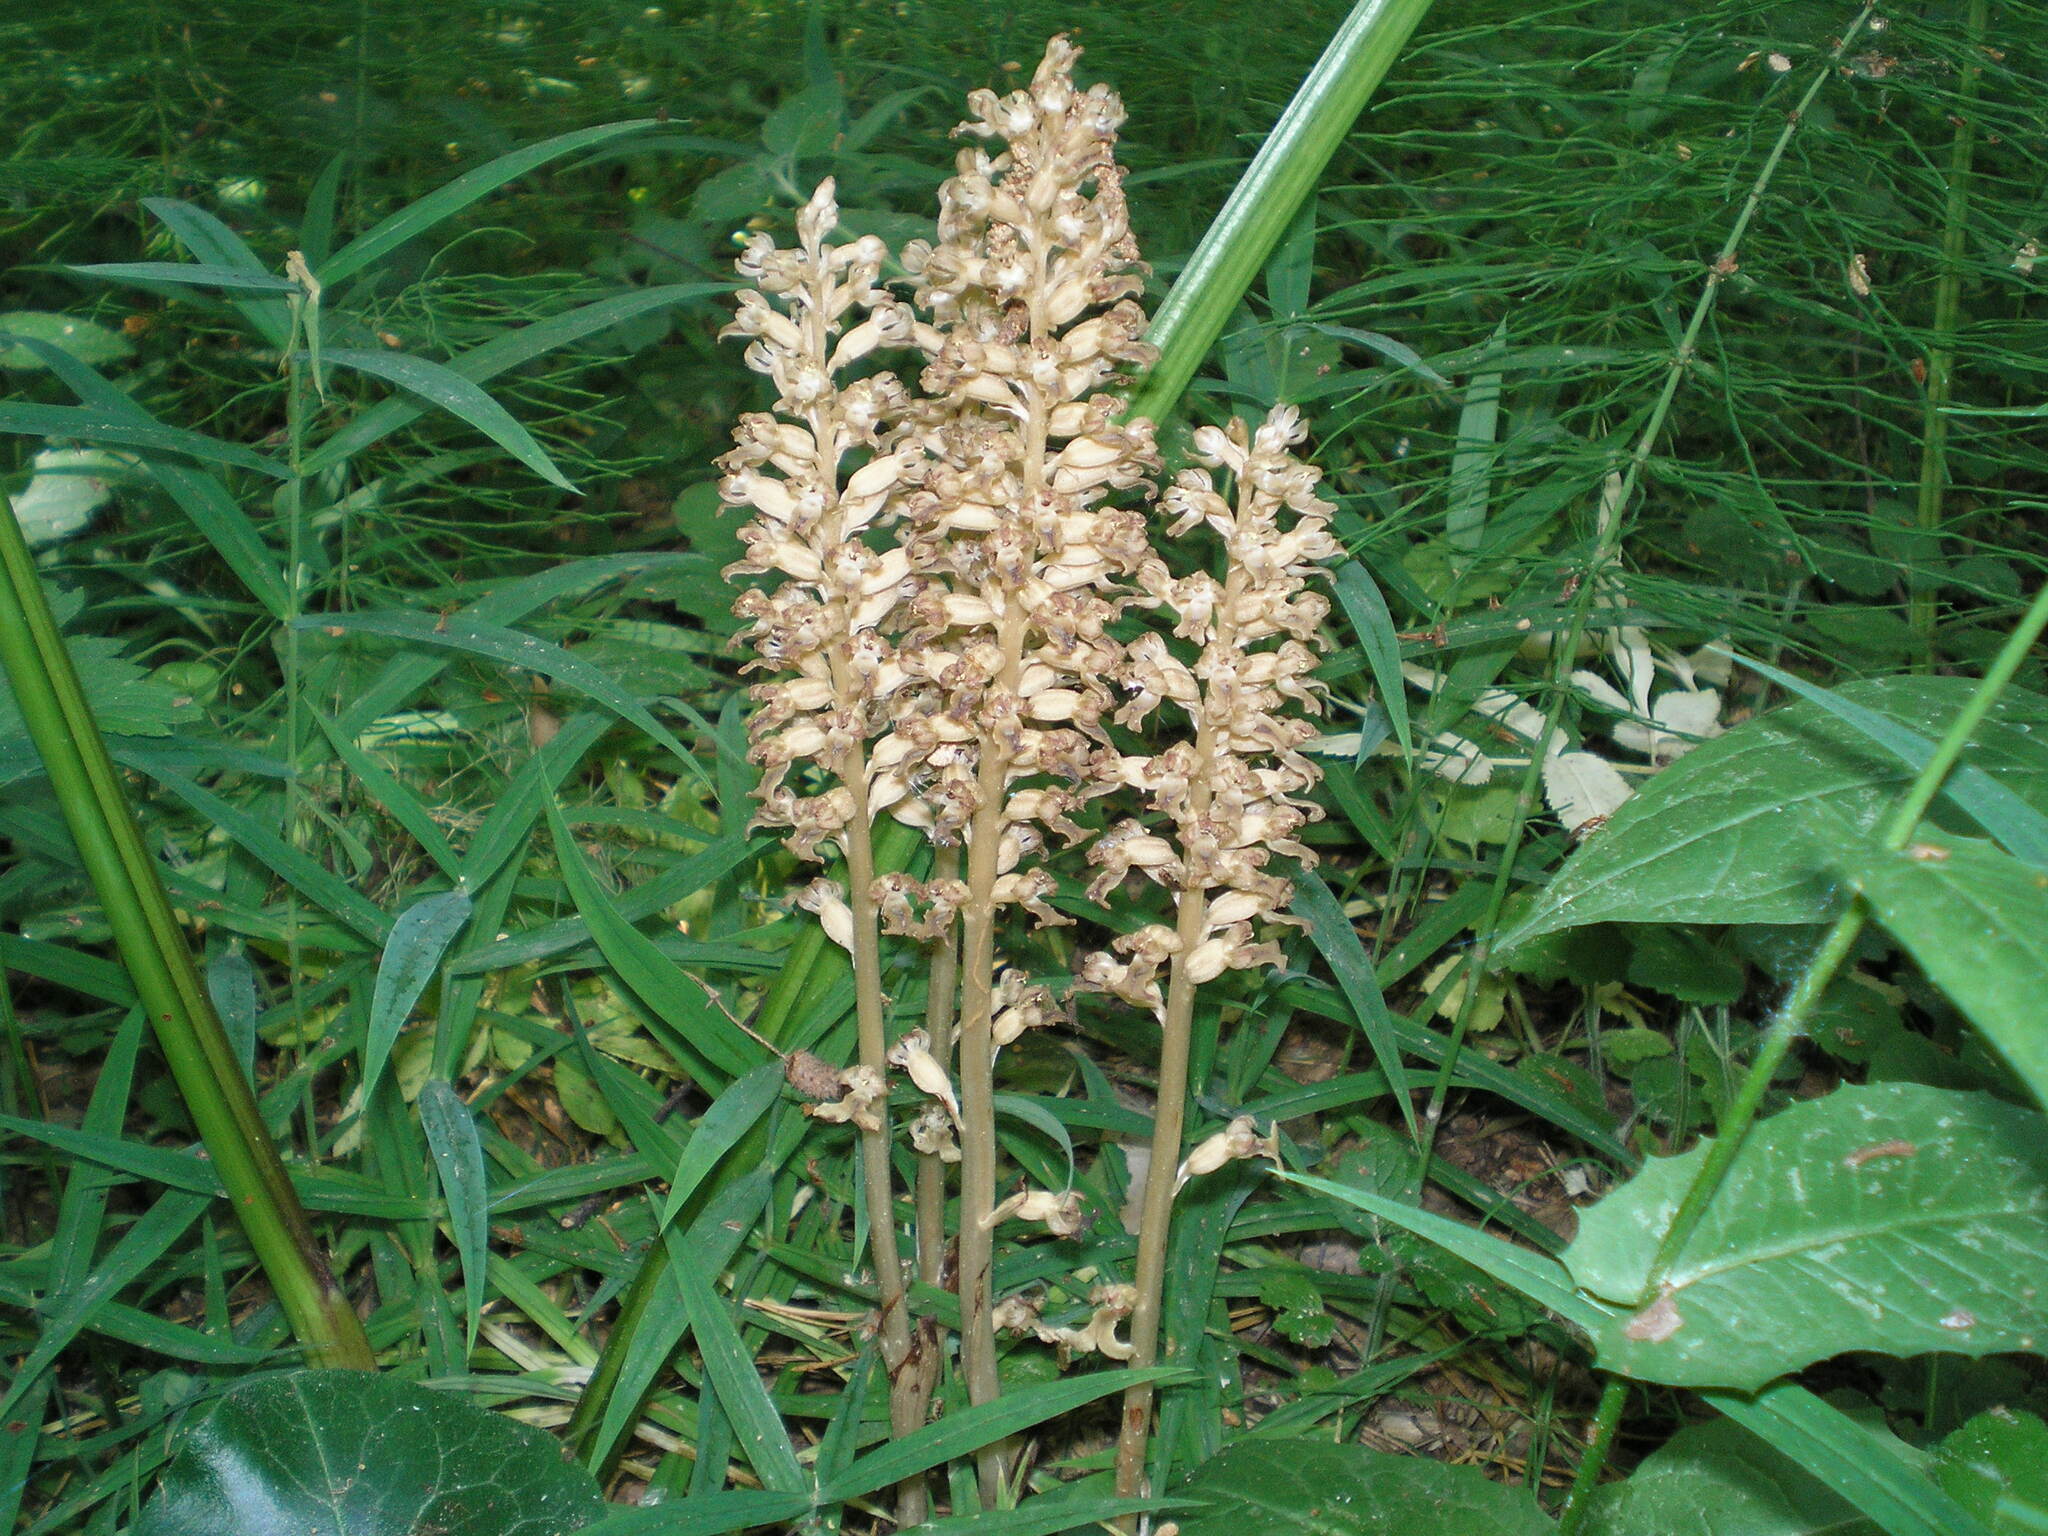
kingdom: Plantae
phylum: Tracheophyta
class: Liliopsida
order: Asparagales
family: Orchidaceae
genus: Neottia
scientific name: Neottia nidus-avis
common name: Bird's-nest orchid
